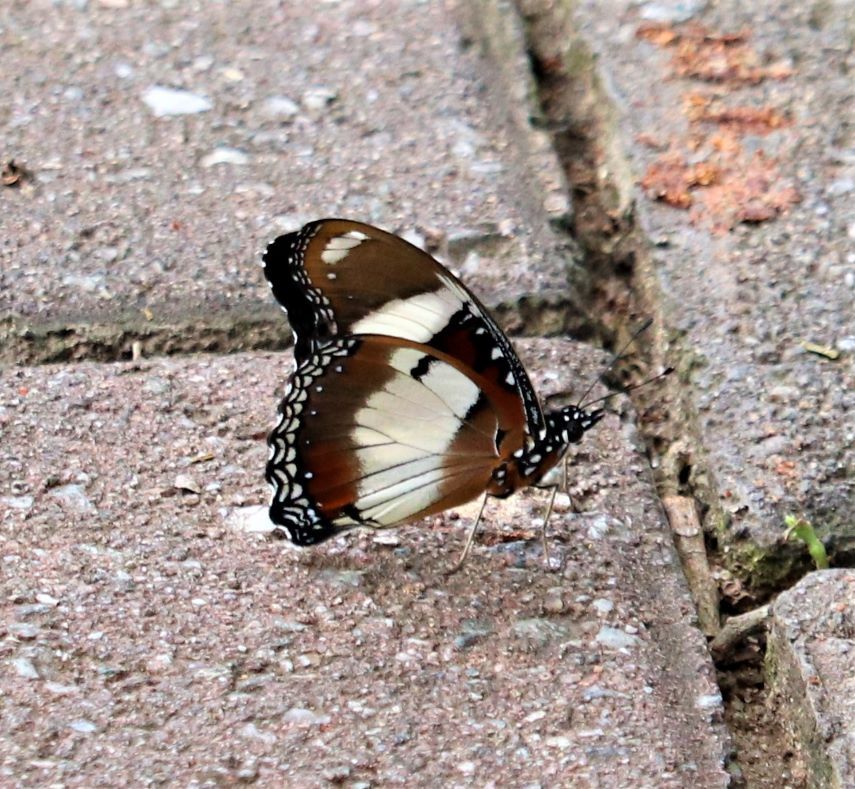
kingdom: Animalia
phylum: Arthropoda
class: Insecta
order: Lepidoptera
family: Nymphalidae
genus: Hypolimnas
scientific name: Hypolimnas misippus
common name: False plain tiger
